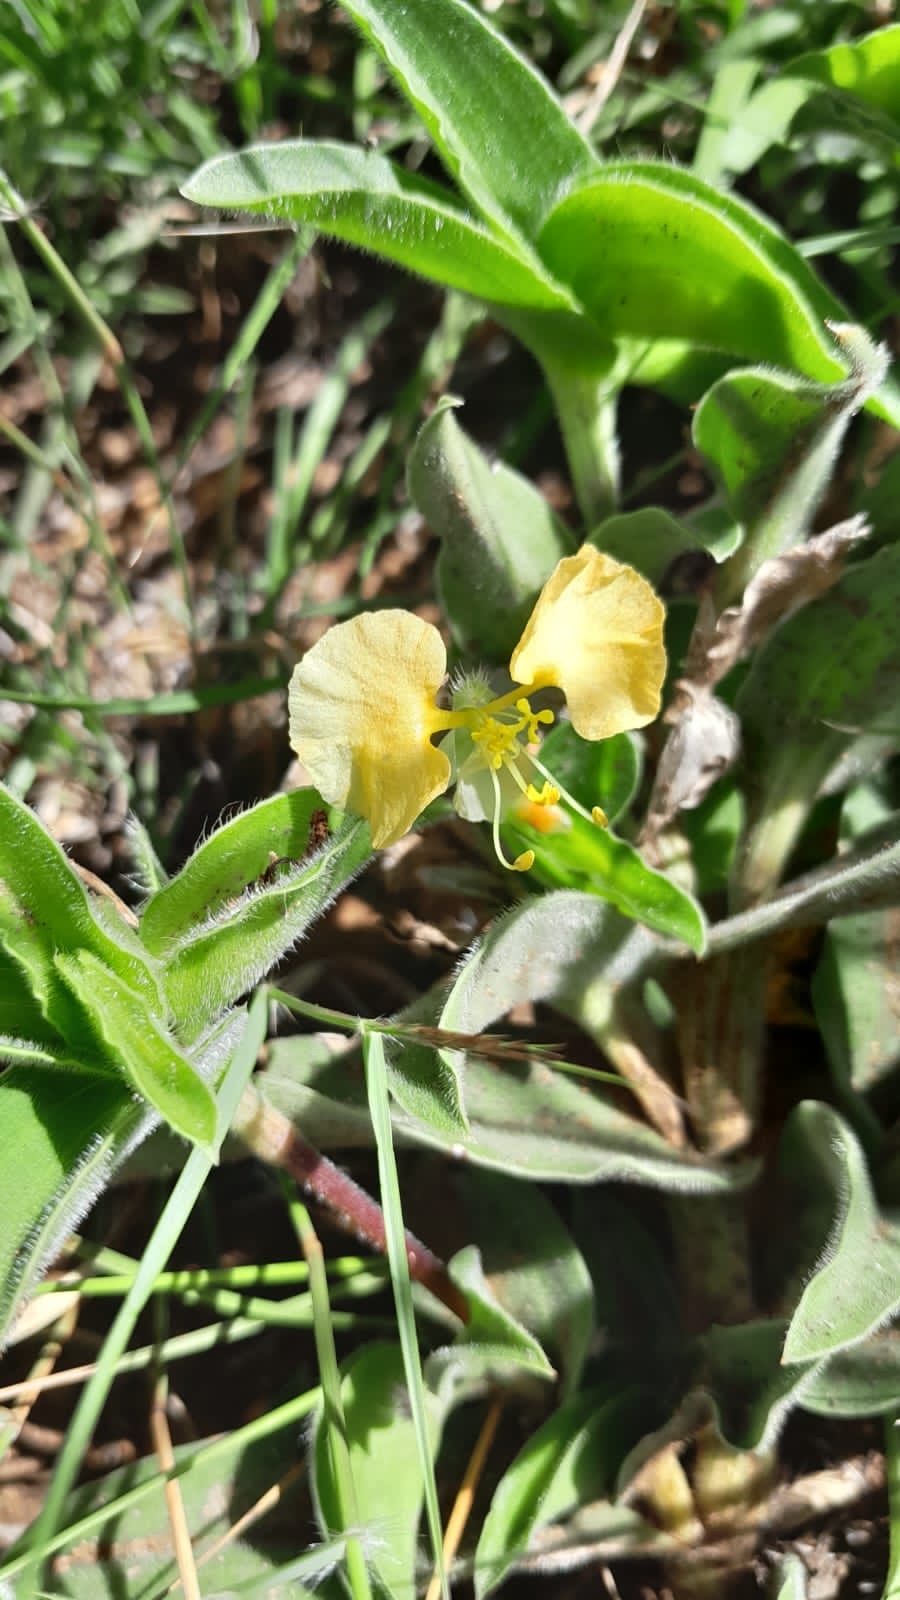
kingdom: Plantae
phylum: Tracheophyta
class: Liliopsida
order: Commelinales
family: Commelinaceae
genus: Commelina
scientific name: Commelina africana
